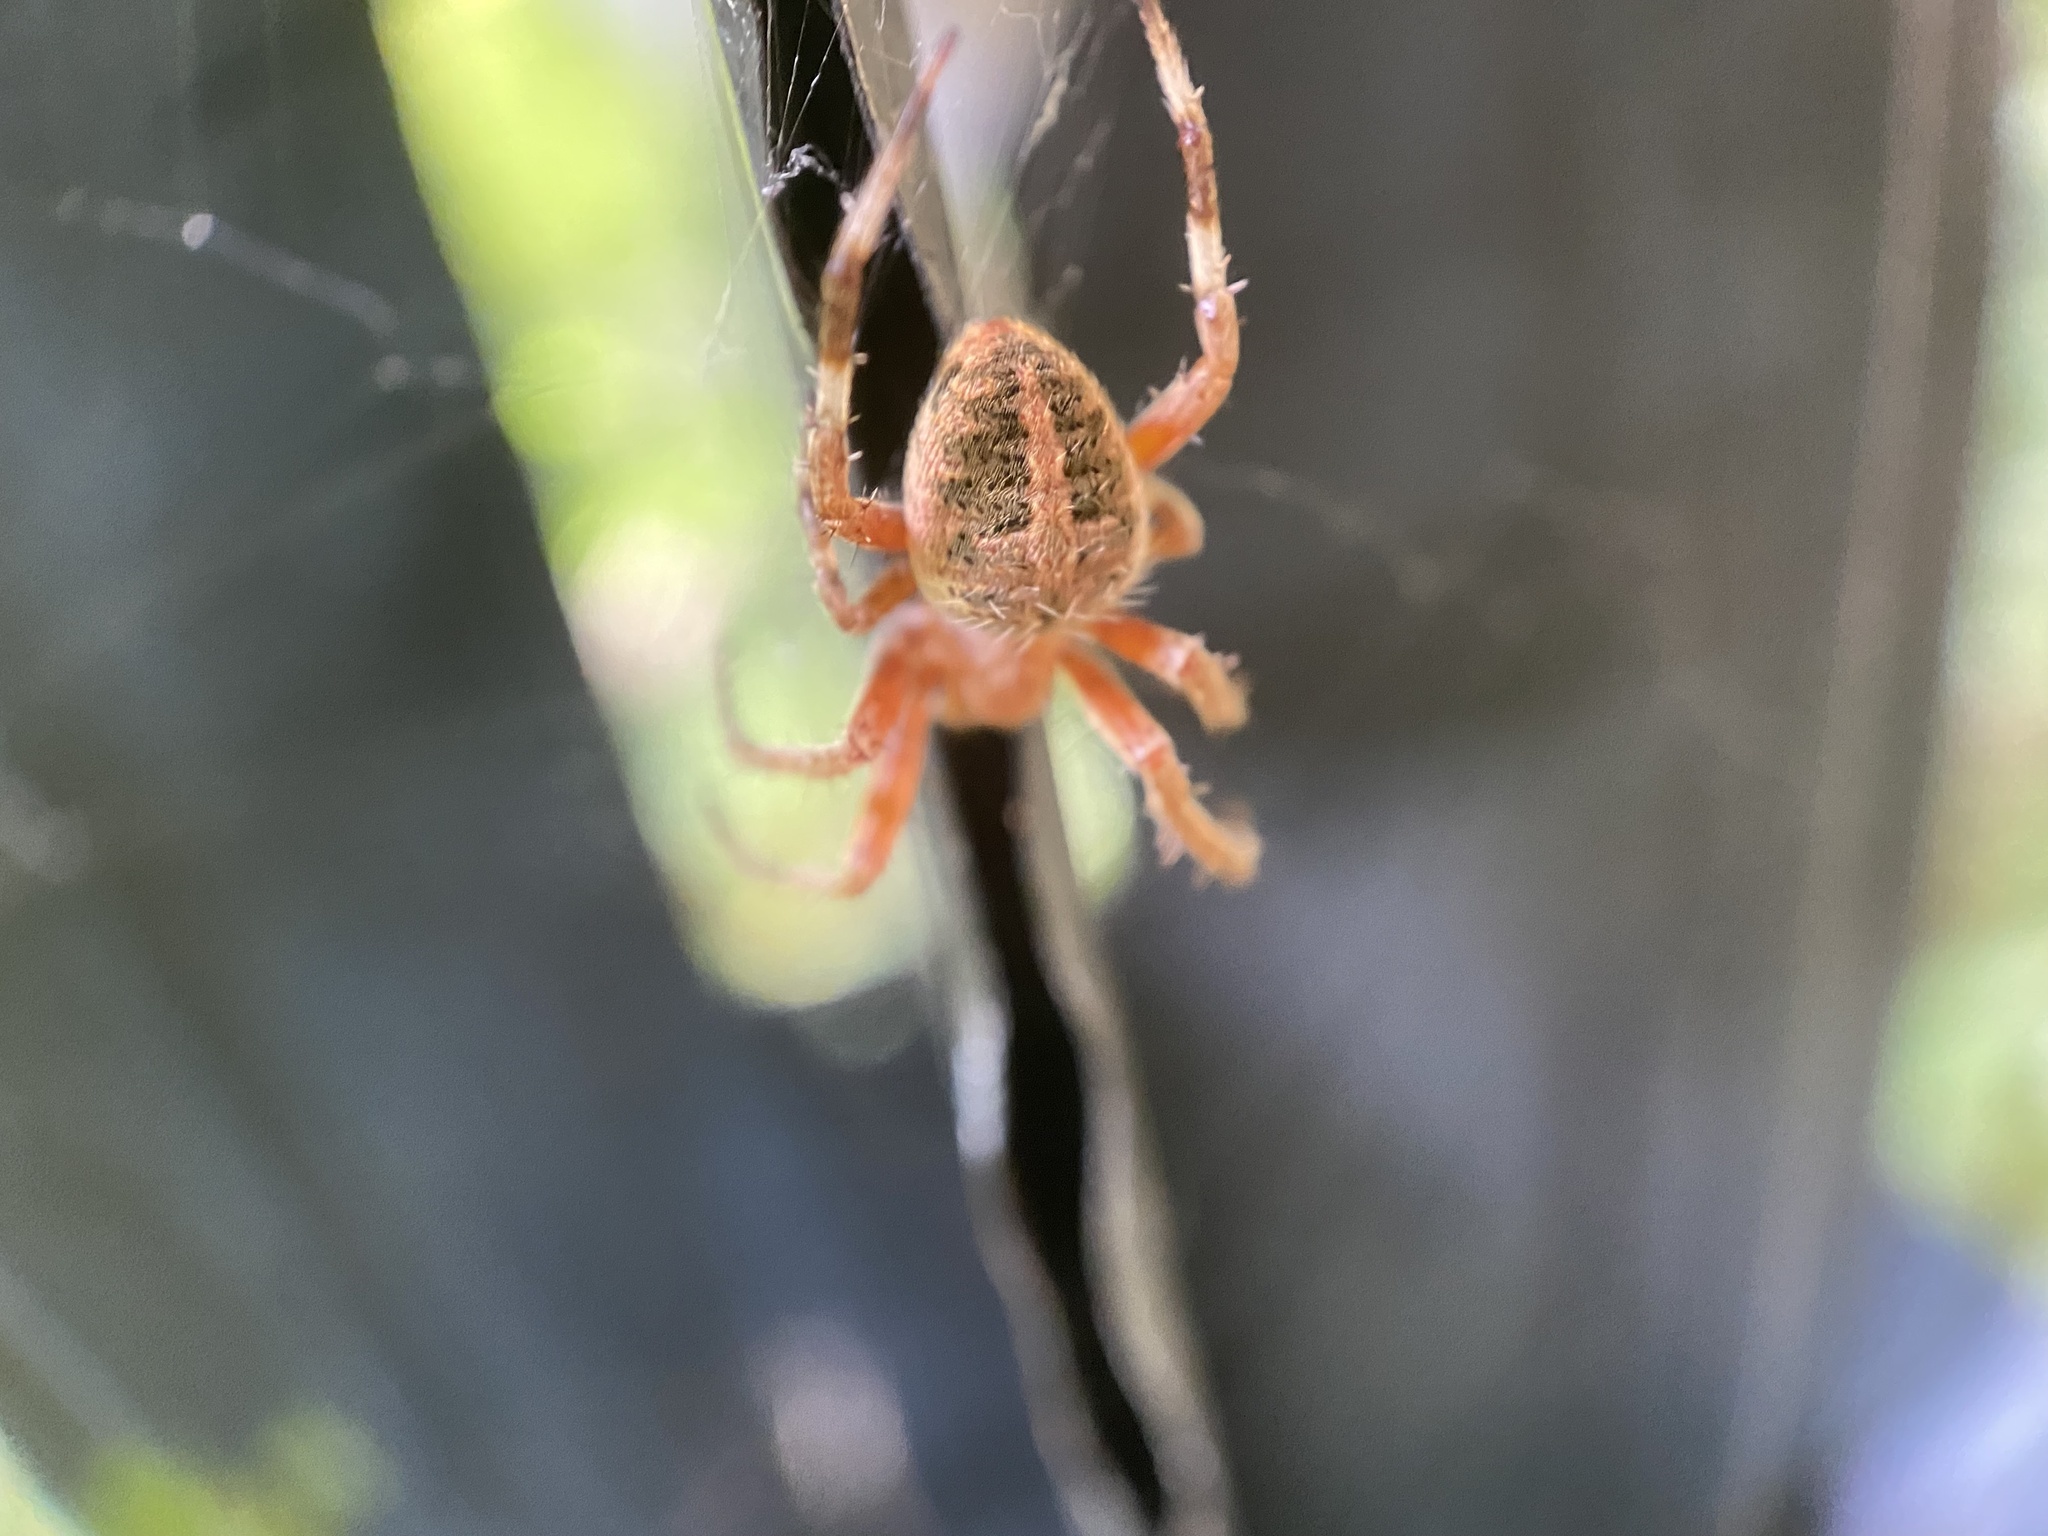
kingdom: Animalia
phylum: Arthropoda
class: Arachnida
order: Araneae
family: Araneidae
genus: Neoscona
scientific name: Neoscona crucifera
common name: Spotted orbweaver
